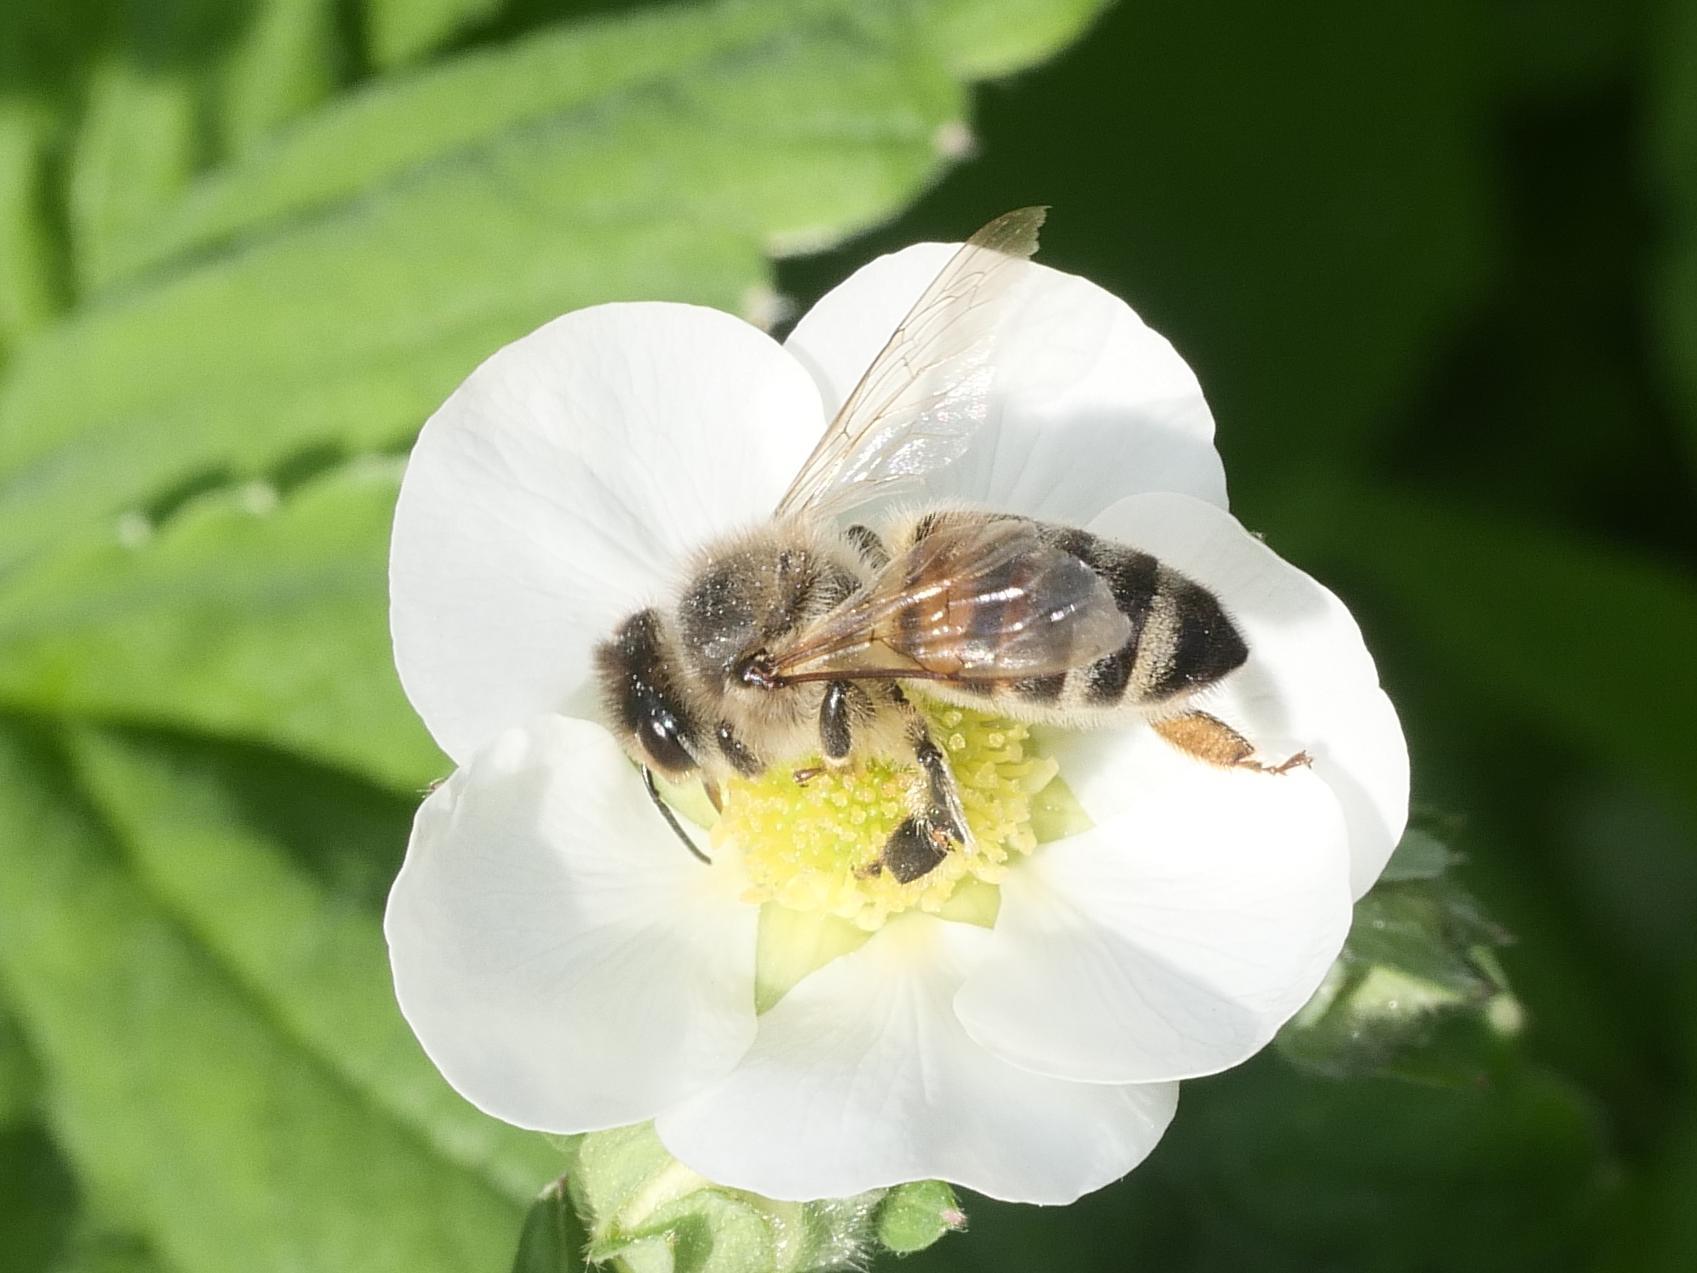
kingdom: Animalia
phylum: Arthropoda
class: Insecta
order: Hymenoptera
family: Apidae
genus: Apis
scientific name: Apis mellifera
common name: Honey bee
